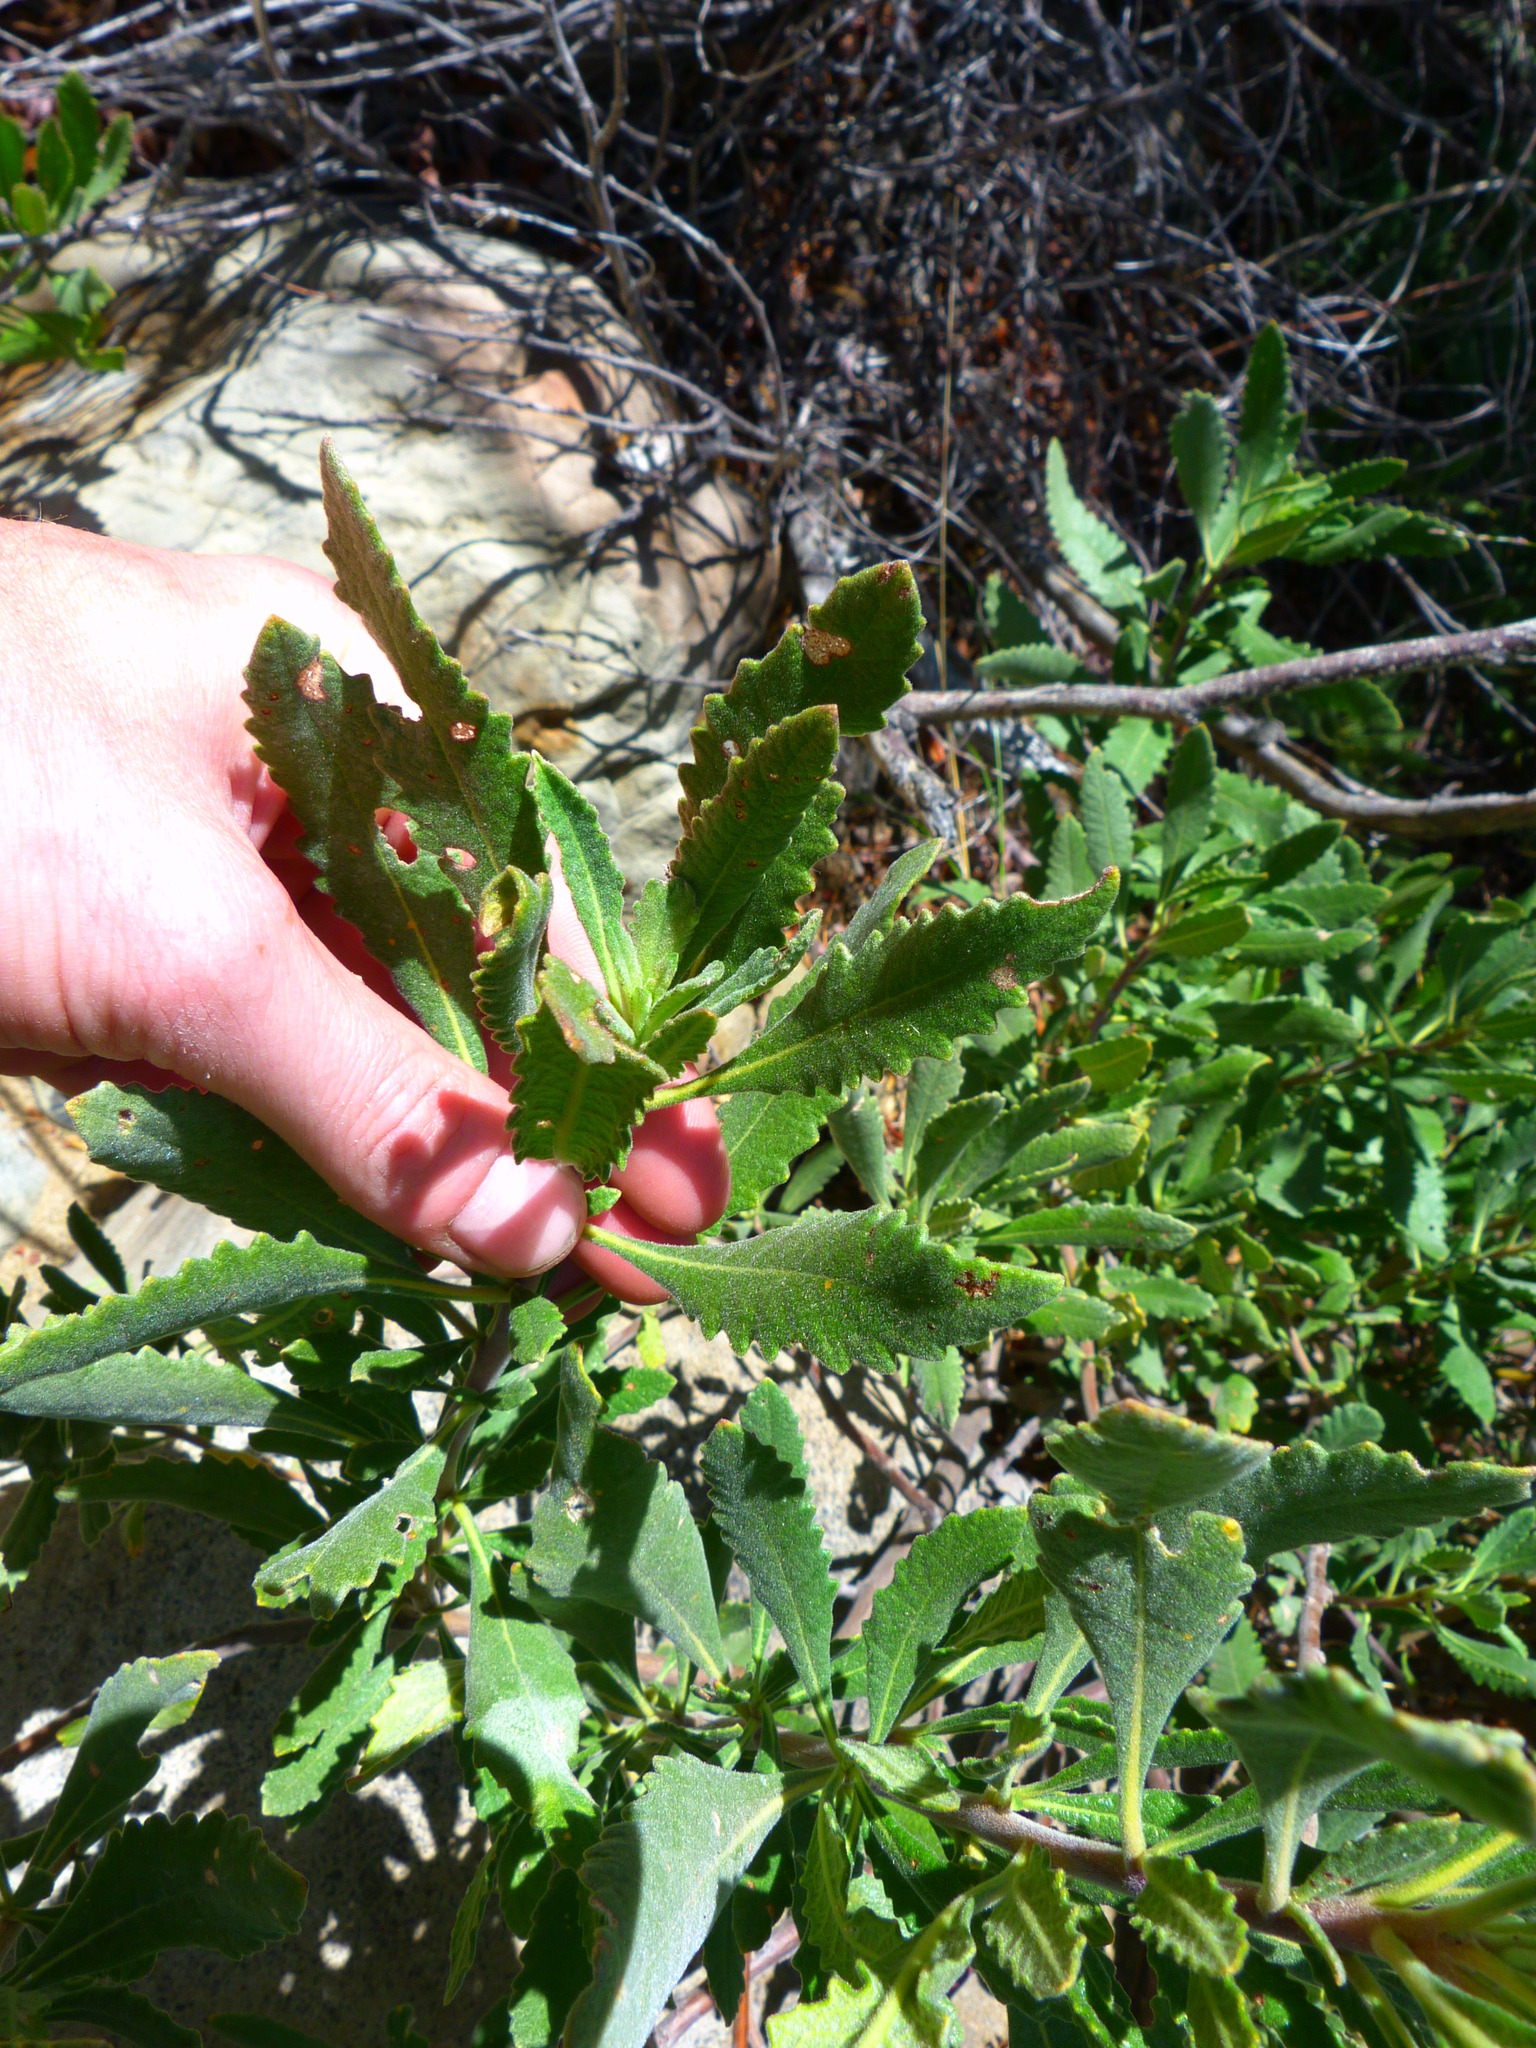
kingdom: Plantae
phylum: Tracheophyta
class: Magnoliopsida
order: Boraginales
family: Namaceae
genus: Eriodictyon
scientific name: Eriodictyon crassifolium
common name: Thick-leaf yerba-santa
